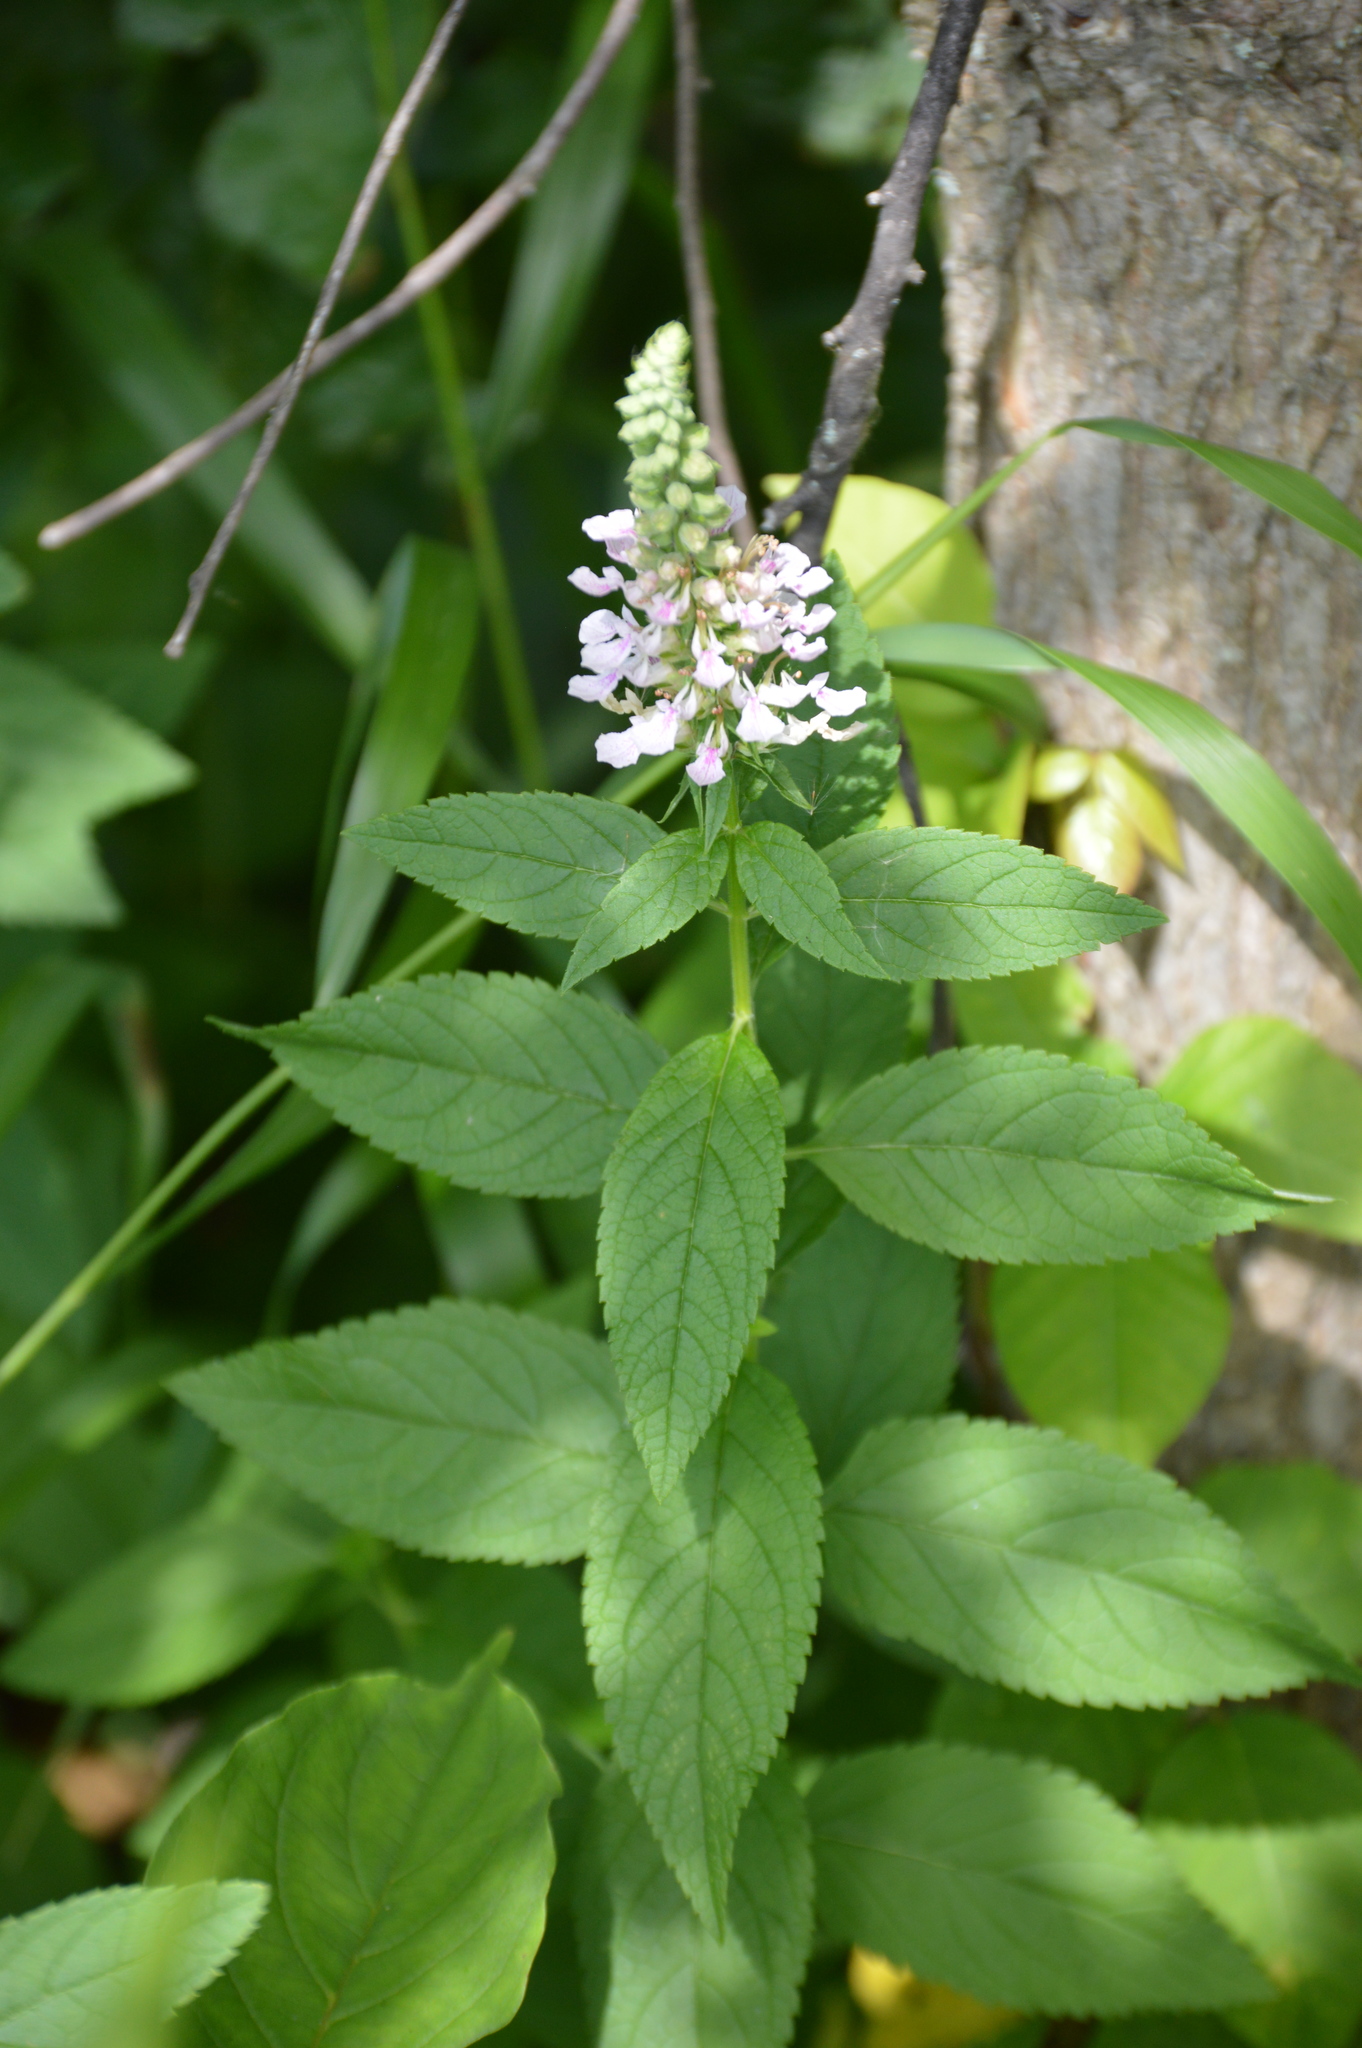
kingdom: Plantae
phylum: Tracheophyta
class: Magnoliopsida
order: Lamiales
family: Lamiaceae
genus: Teucrium
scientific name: Teucrium canadense
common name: American germander
